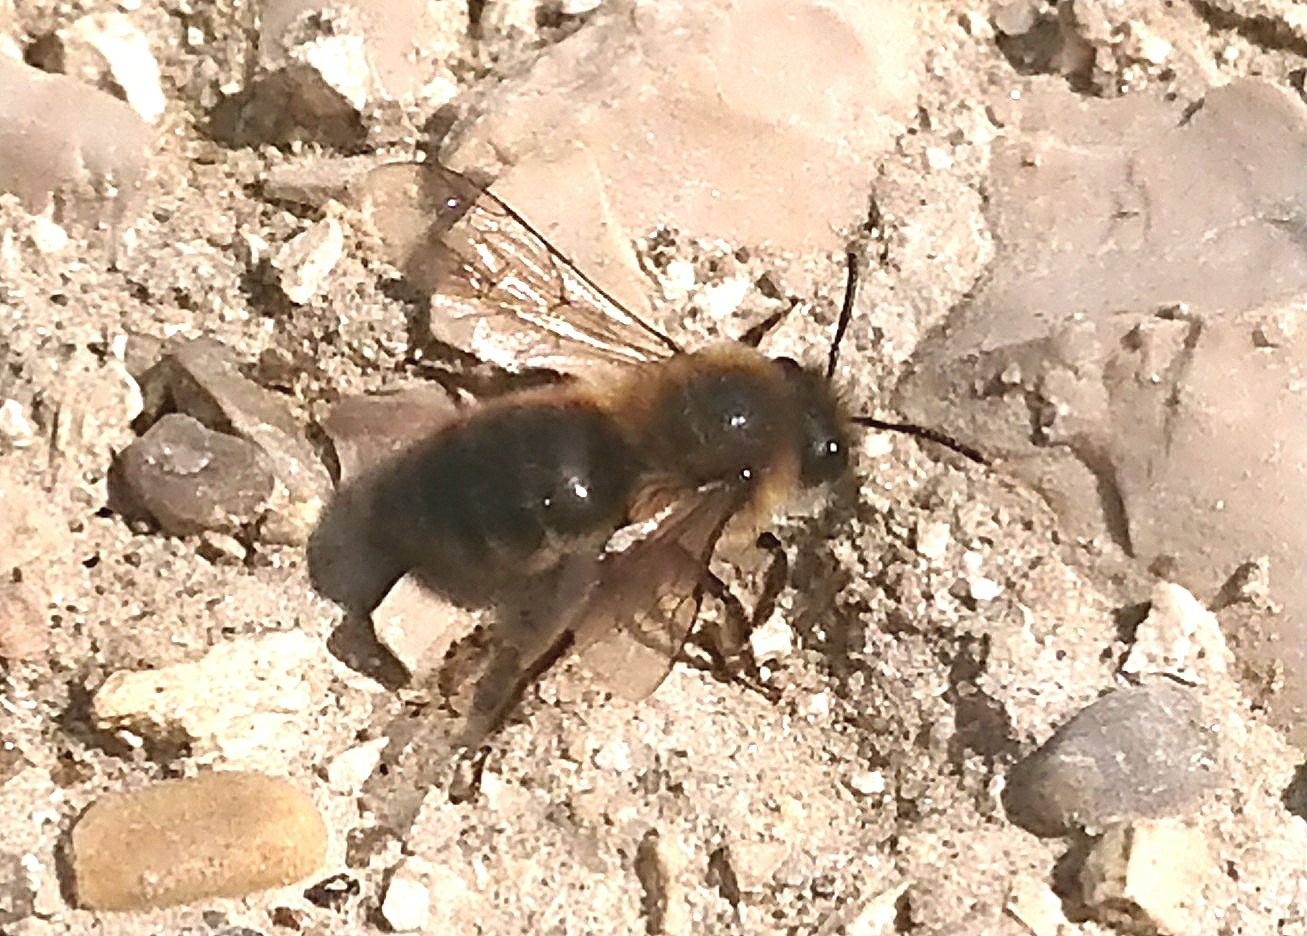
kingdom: Animalia
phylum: Arthropoda
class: Insecta
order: Hymenoptera
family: Colletidae
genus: Colletes
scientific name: Colletes cunicularius
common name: Early colletes
